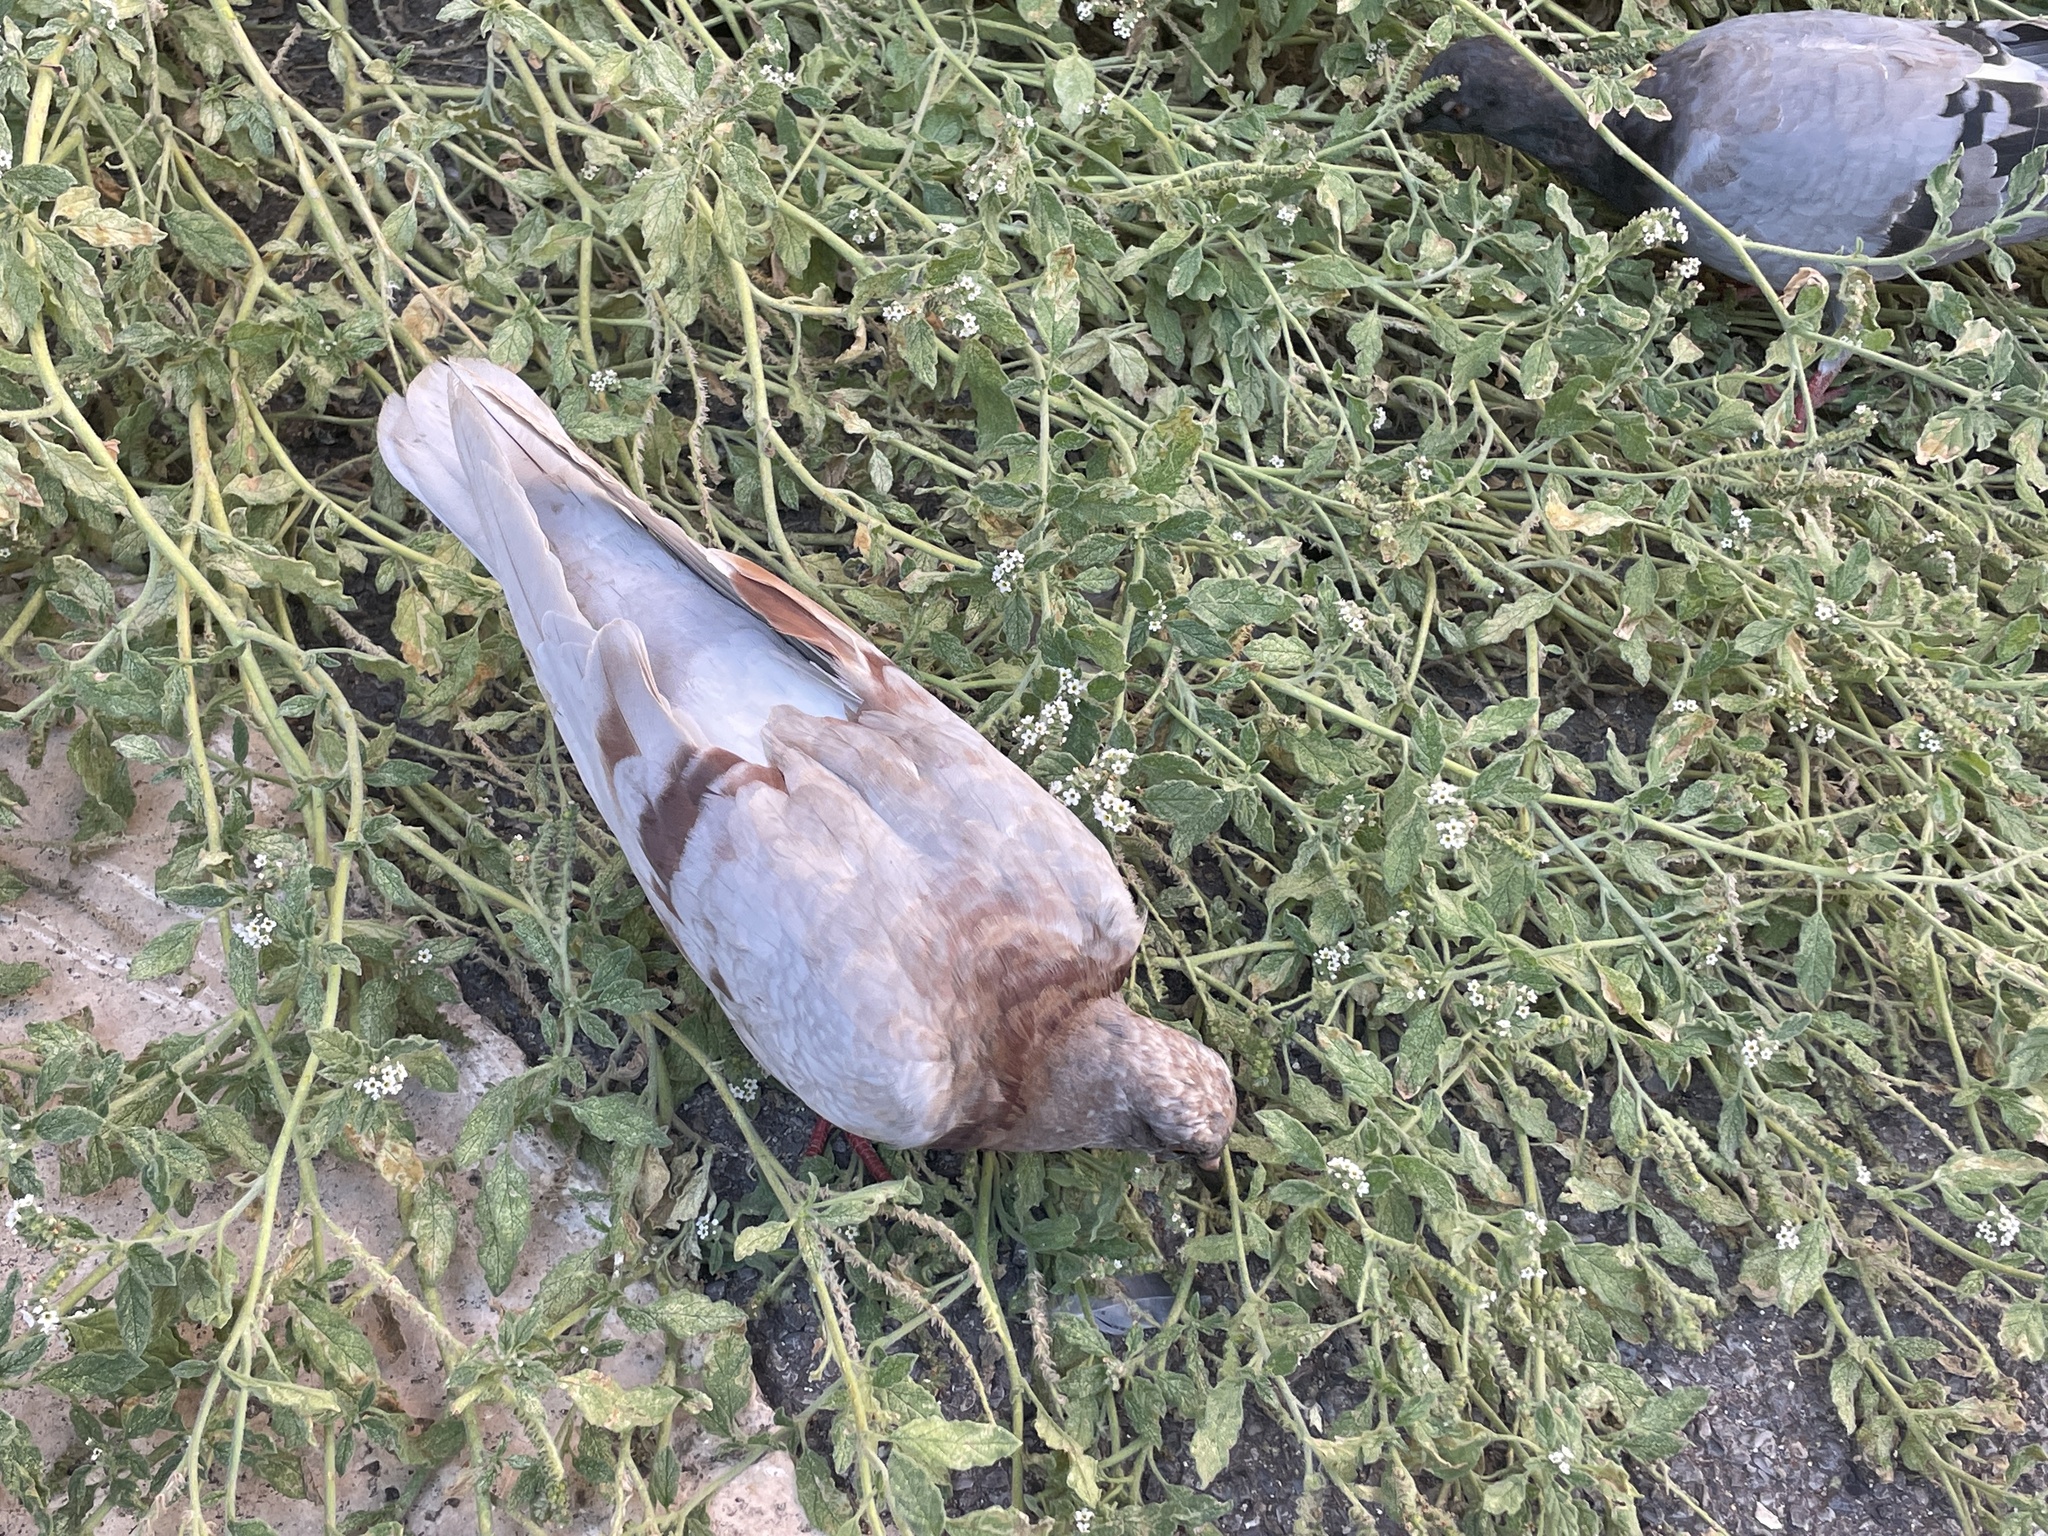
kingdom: Animalia
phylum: Chordata
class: Aves
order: Columbiformes
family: Columbidae
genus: Columba
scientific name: Columba livia
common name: Rock pigeon
